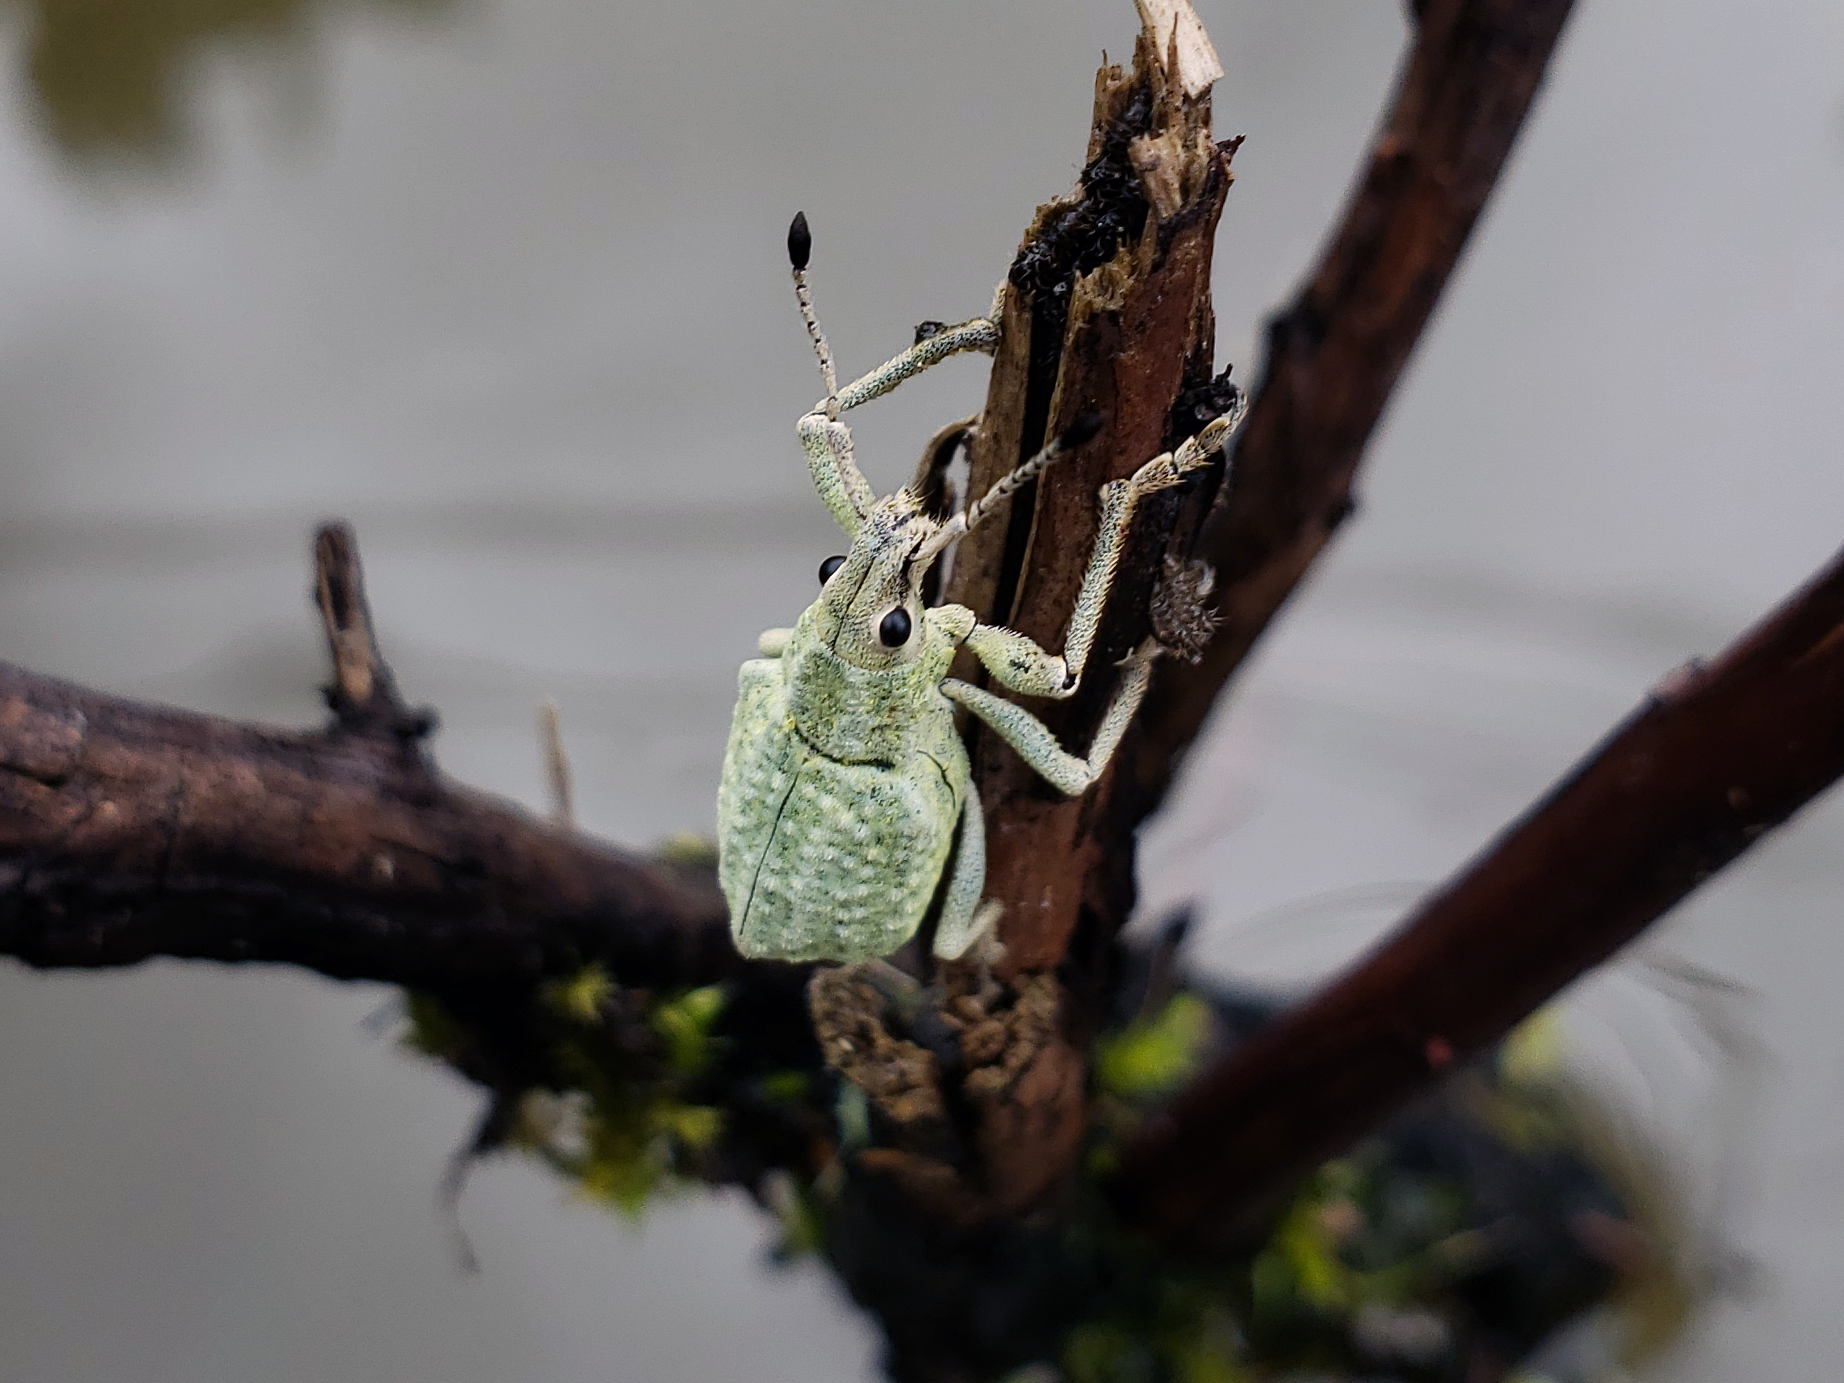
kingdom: Animalia
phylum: Arthropoda
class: Insecta
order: Coleoptera
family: Curculionidae
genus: Cyrtomon
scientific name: Cyrtomon gibber
